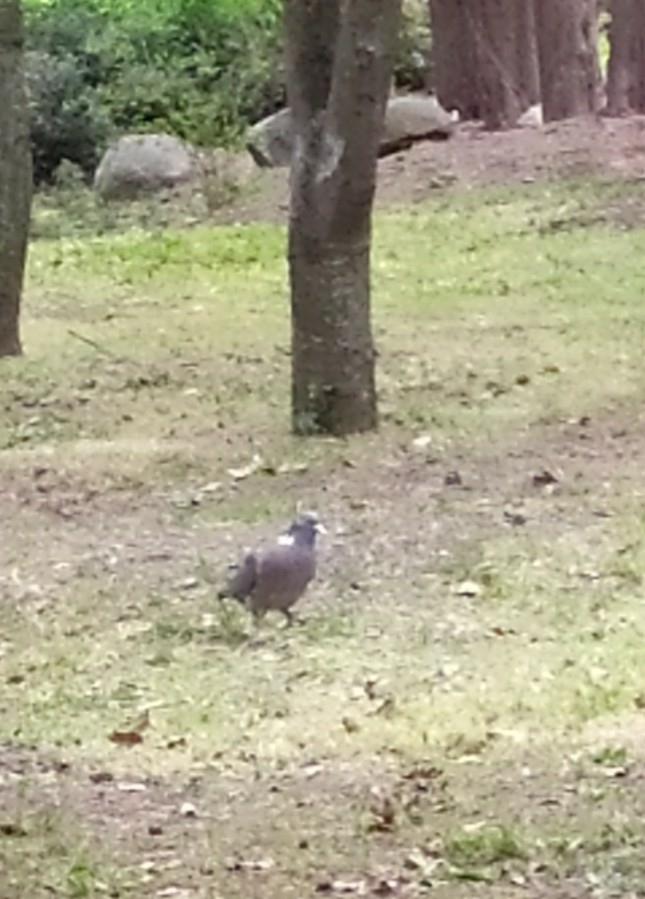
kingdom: Animalia
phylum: Chordata
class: Aves
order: Columbiformes
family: Columbidae
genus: Columba
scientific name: Columba palumbus
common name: Common wood pigeon
